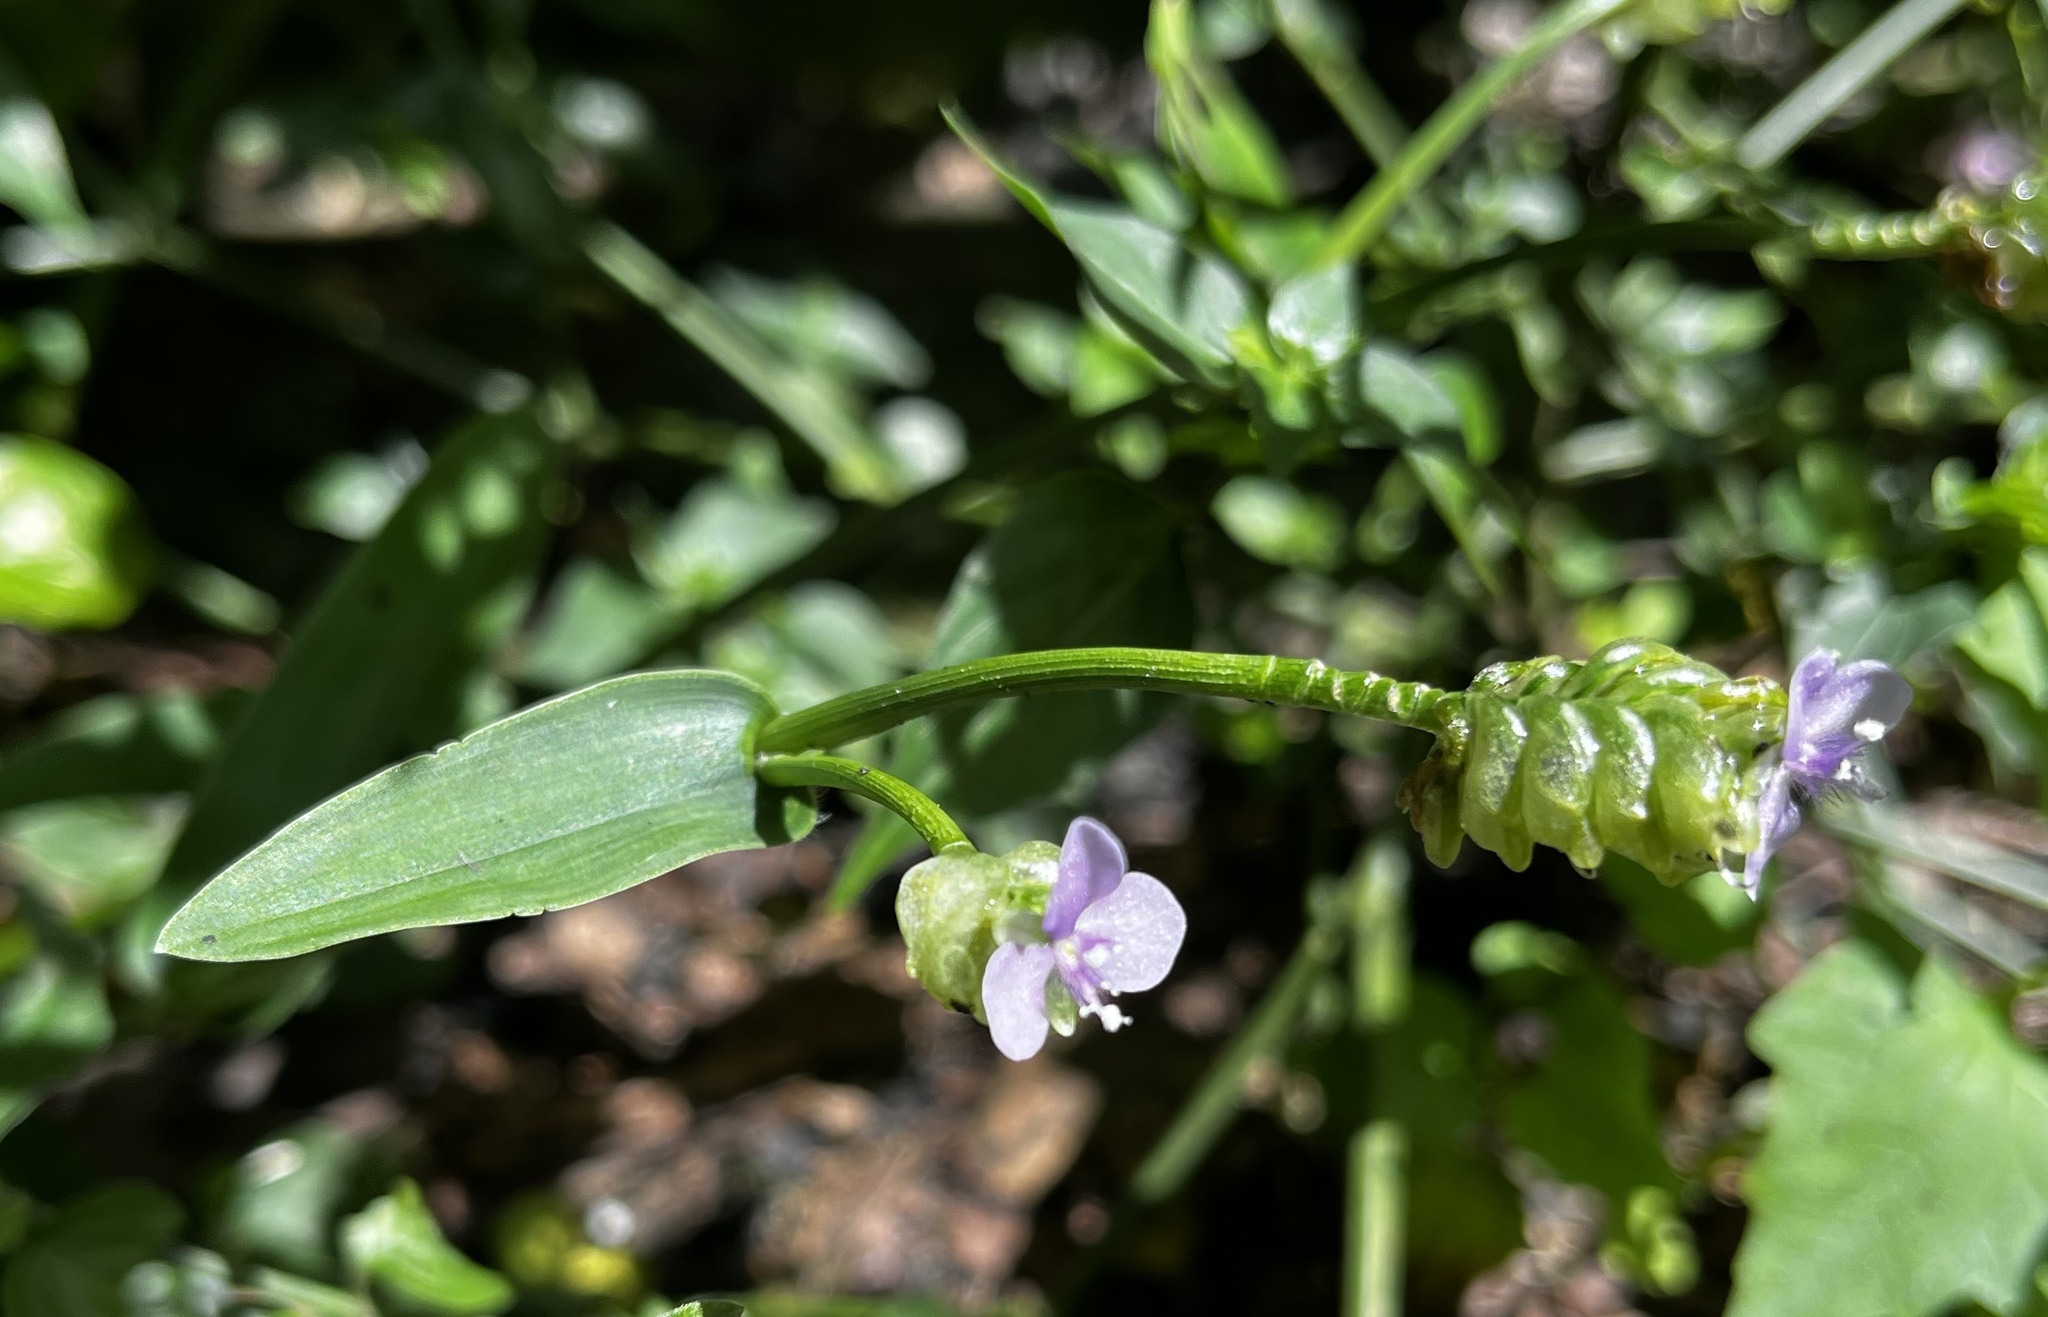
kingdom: Plantae
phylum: Tracheophyta
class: Liliopsida
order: Commelinales
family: Commelinaceae
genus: Murdannia
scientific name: Murdannia bracteata
